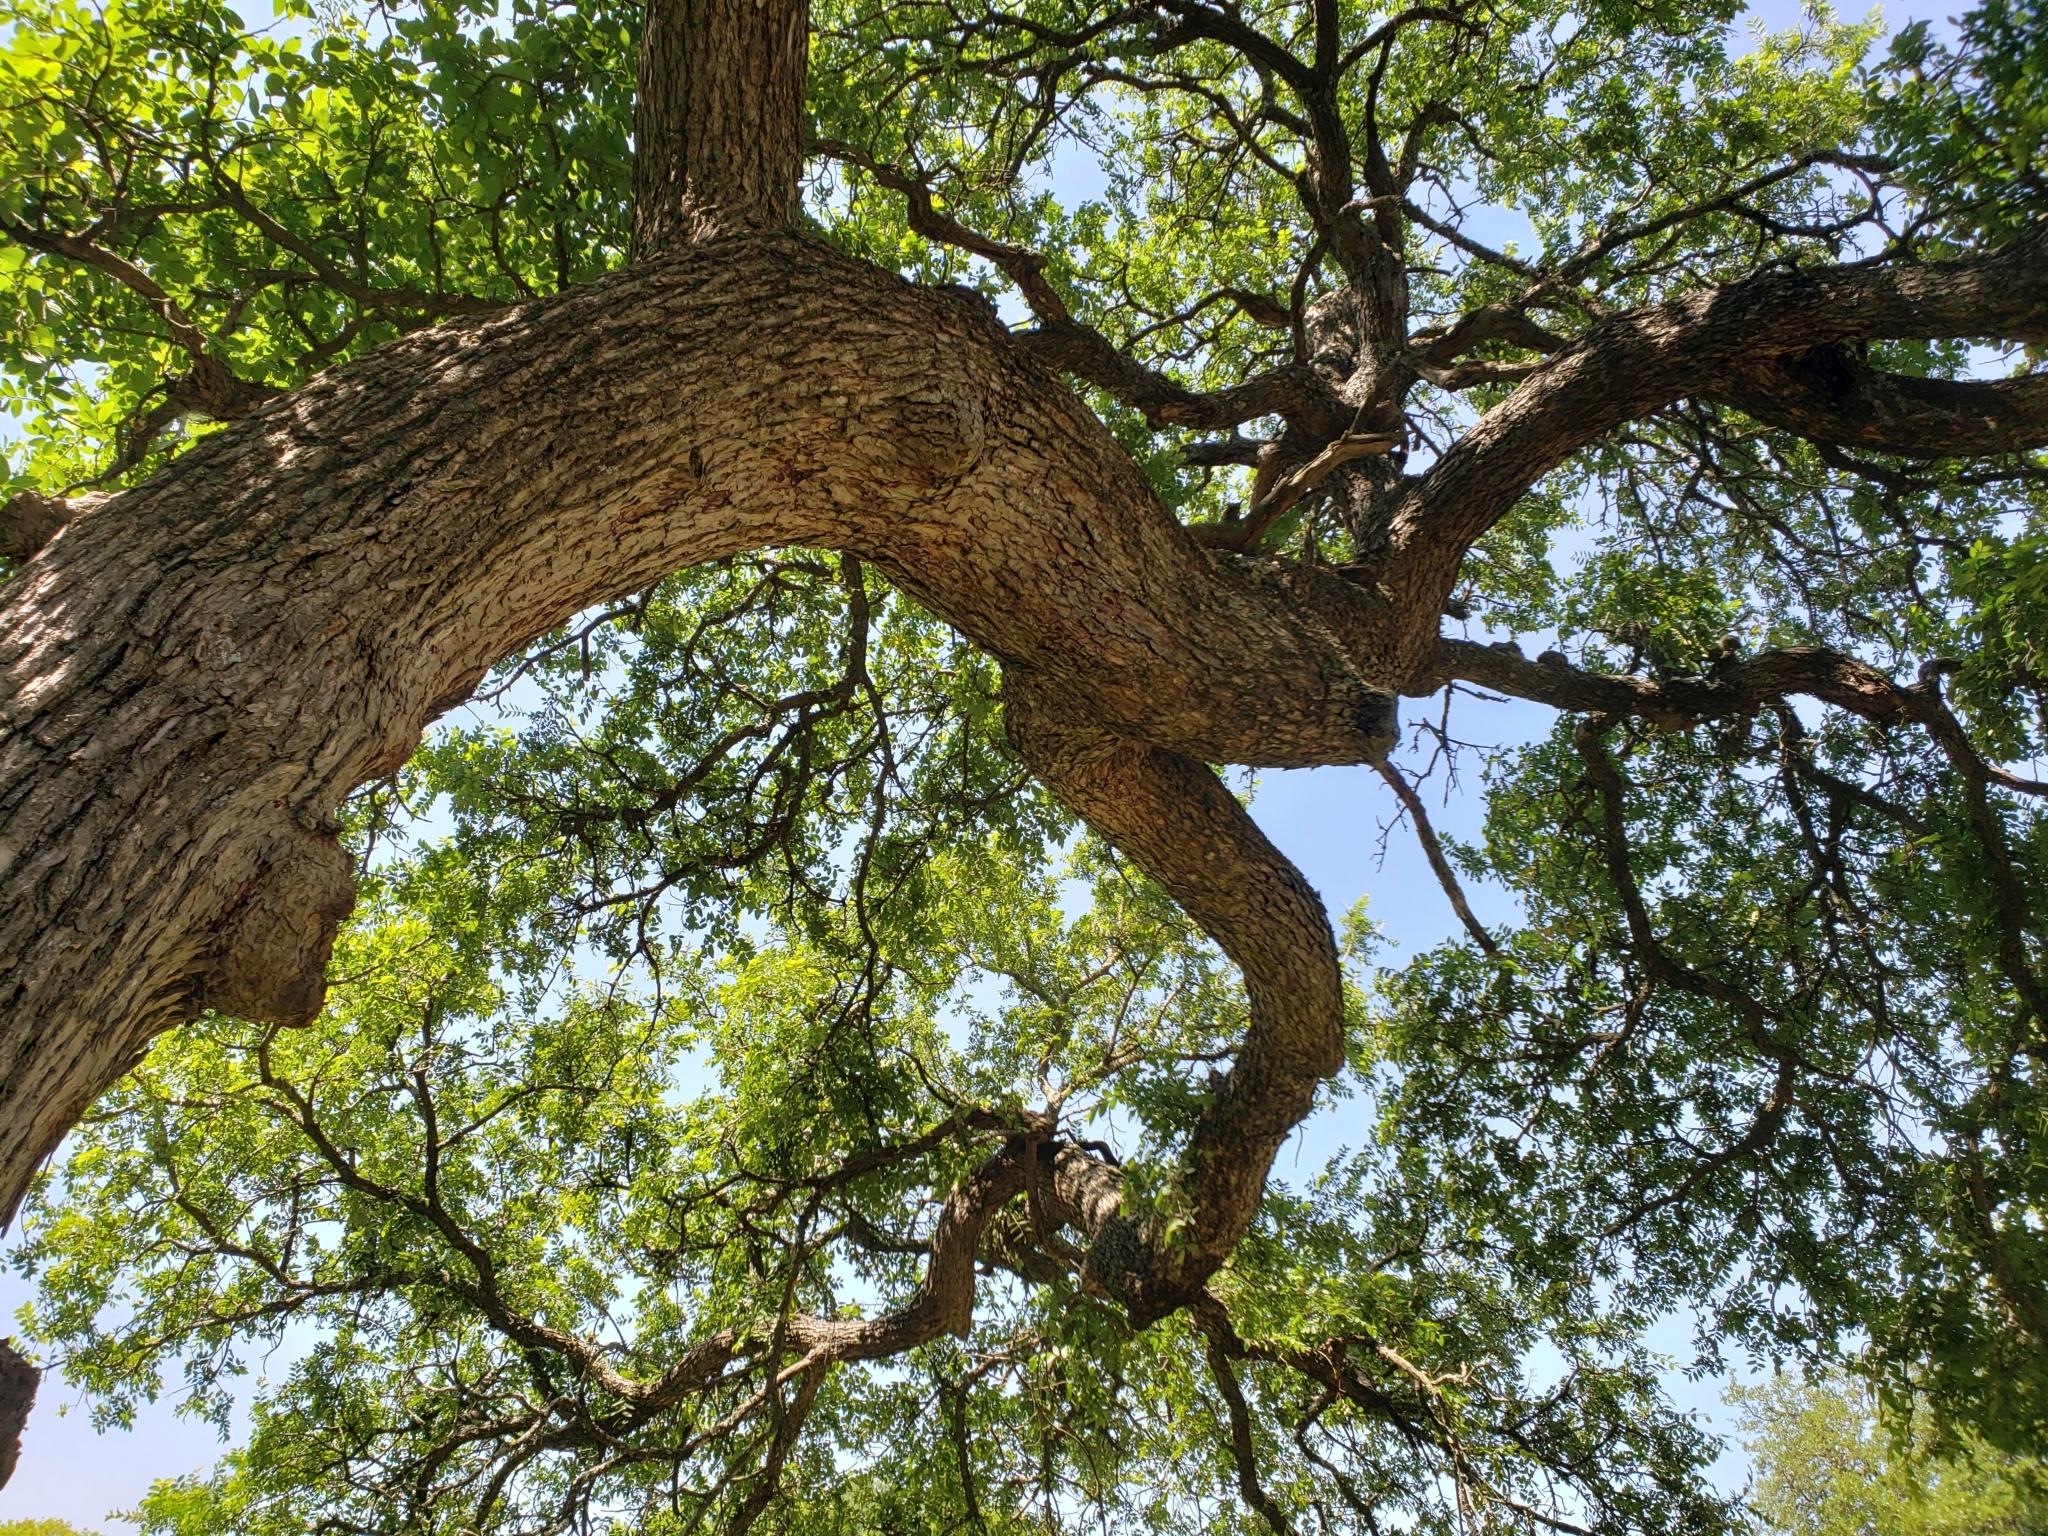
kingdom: Plantae
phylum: Tracheophyta
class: Magnoliopsida
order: Rosales
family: Ulmaceae
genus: Ulmus
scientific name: Ulmus crassifolia
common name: Basket elm
